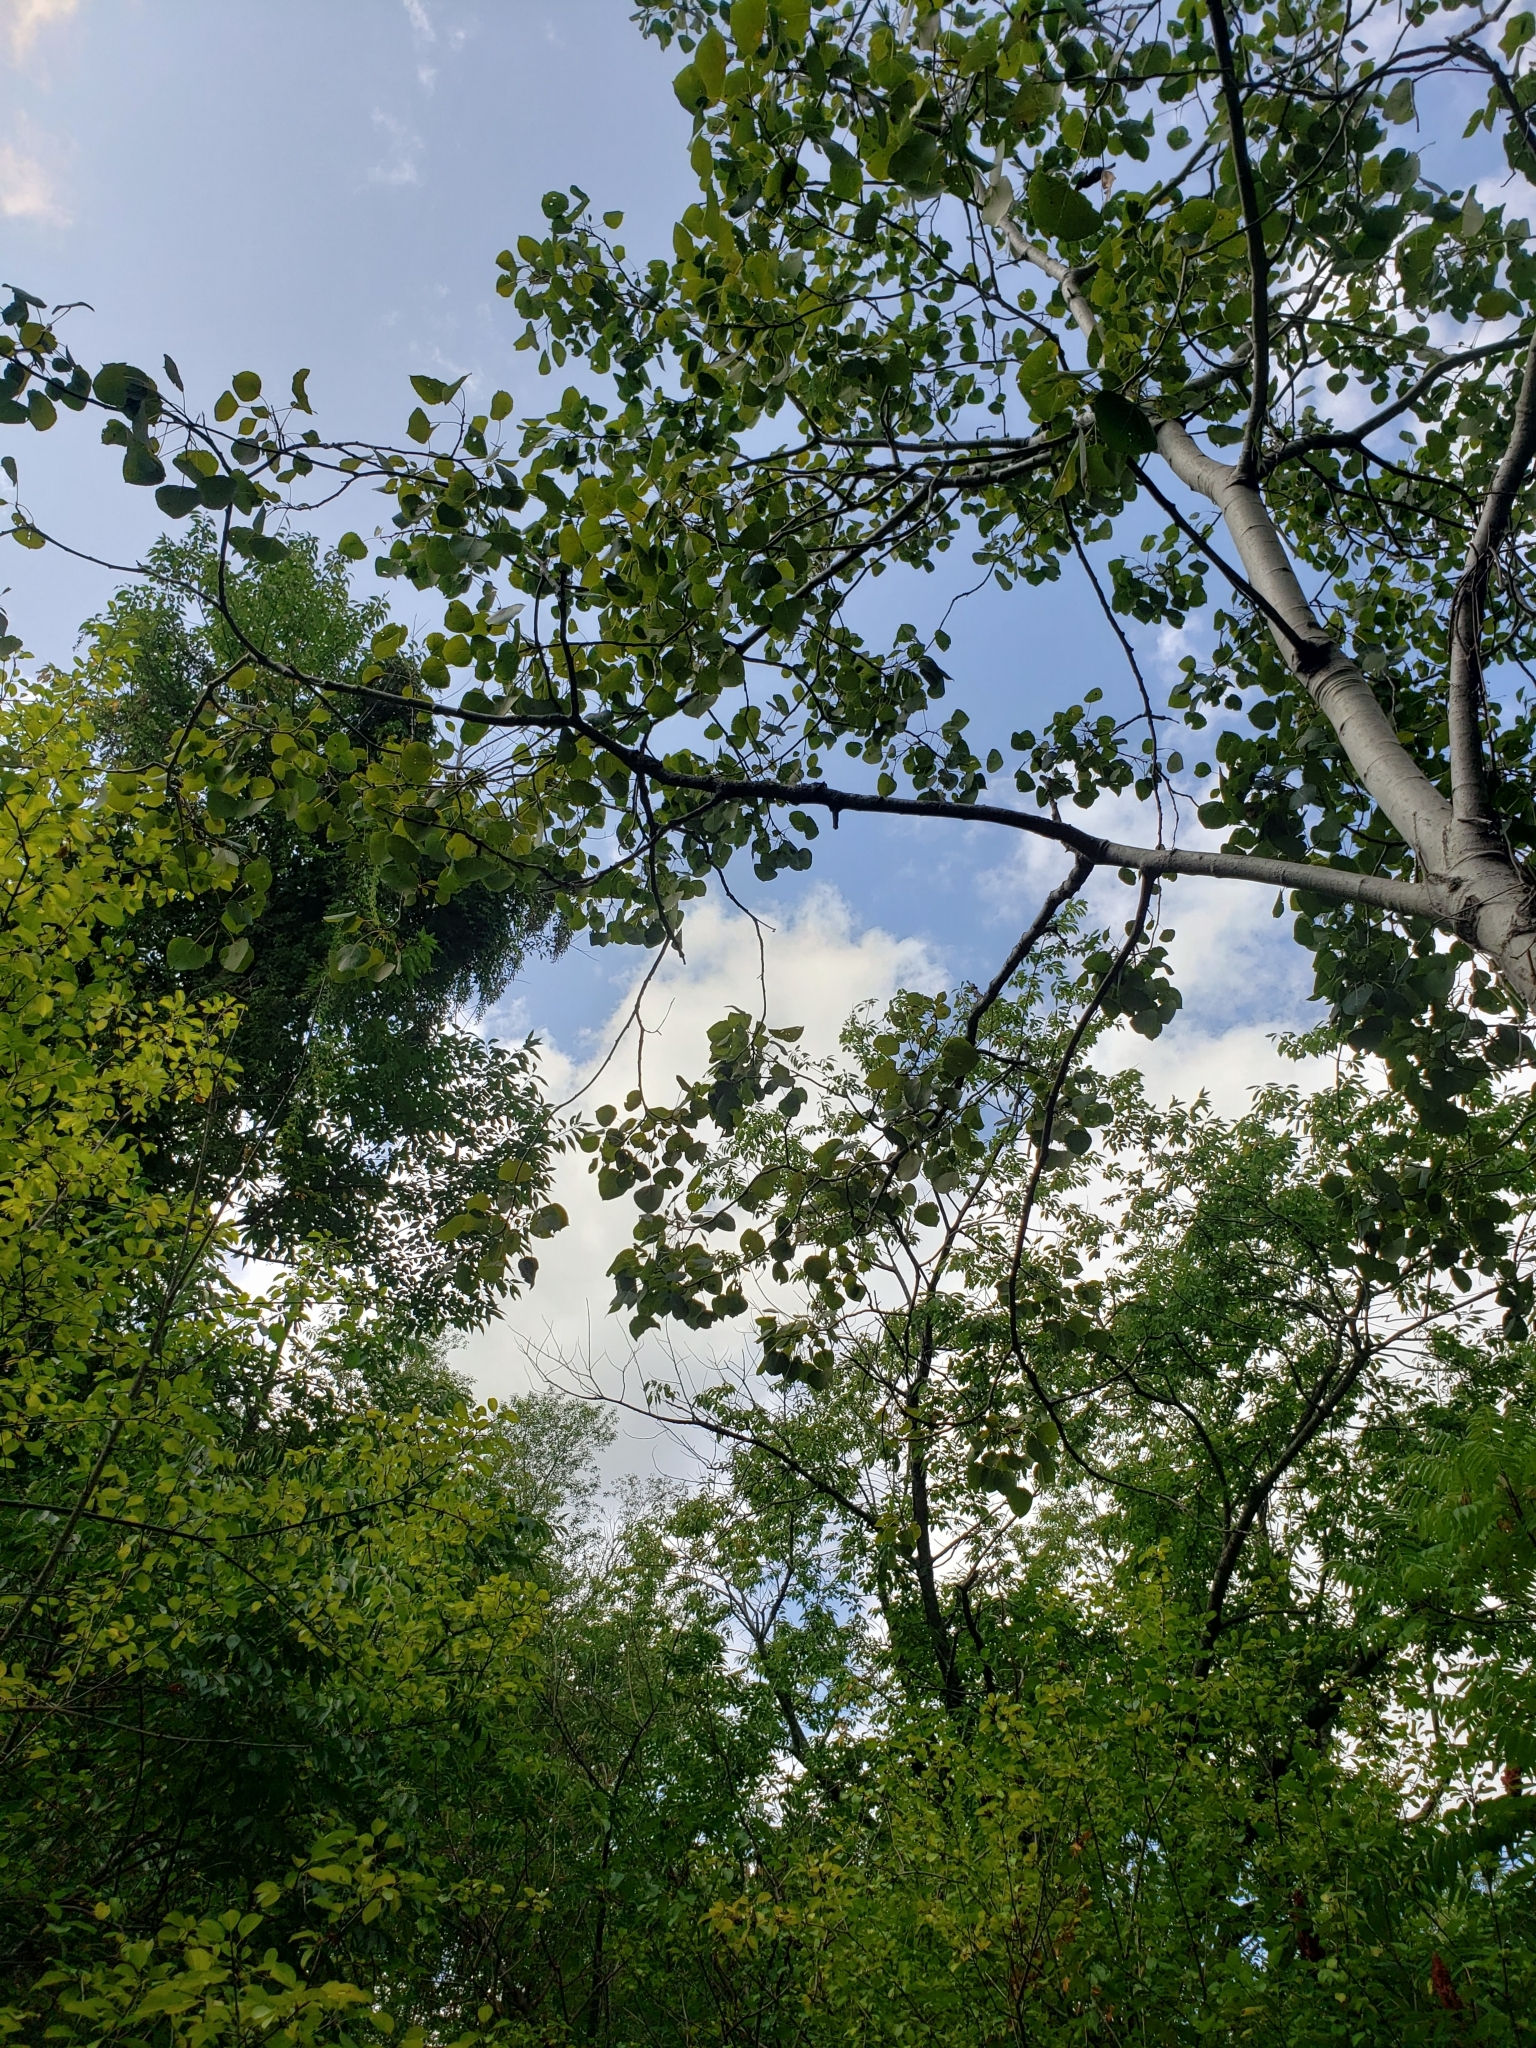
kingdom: Plantae
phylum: Tracheophyta
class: Magnoliopsida
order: Malpighiales
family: Salicaceae
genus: Populus
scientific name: Populus tremuloides
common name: Quaking aspen
